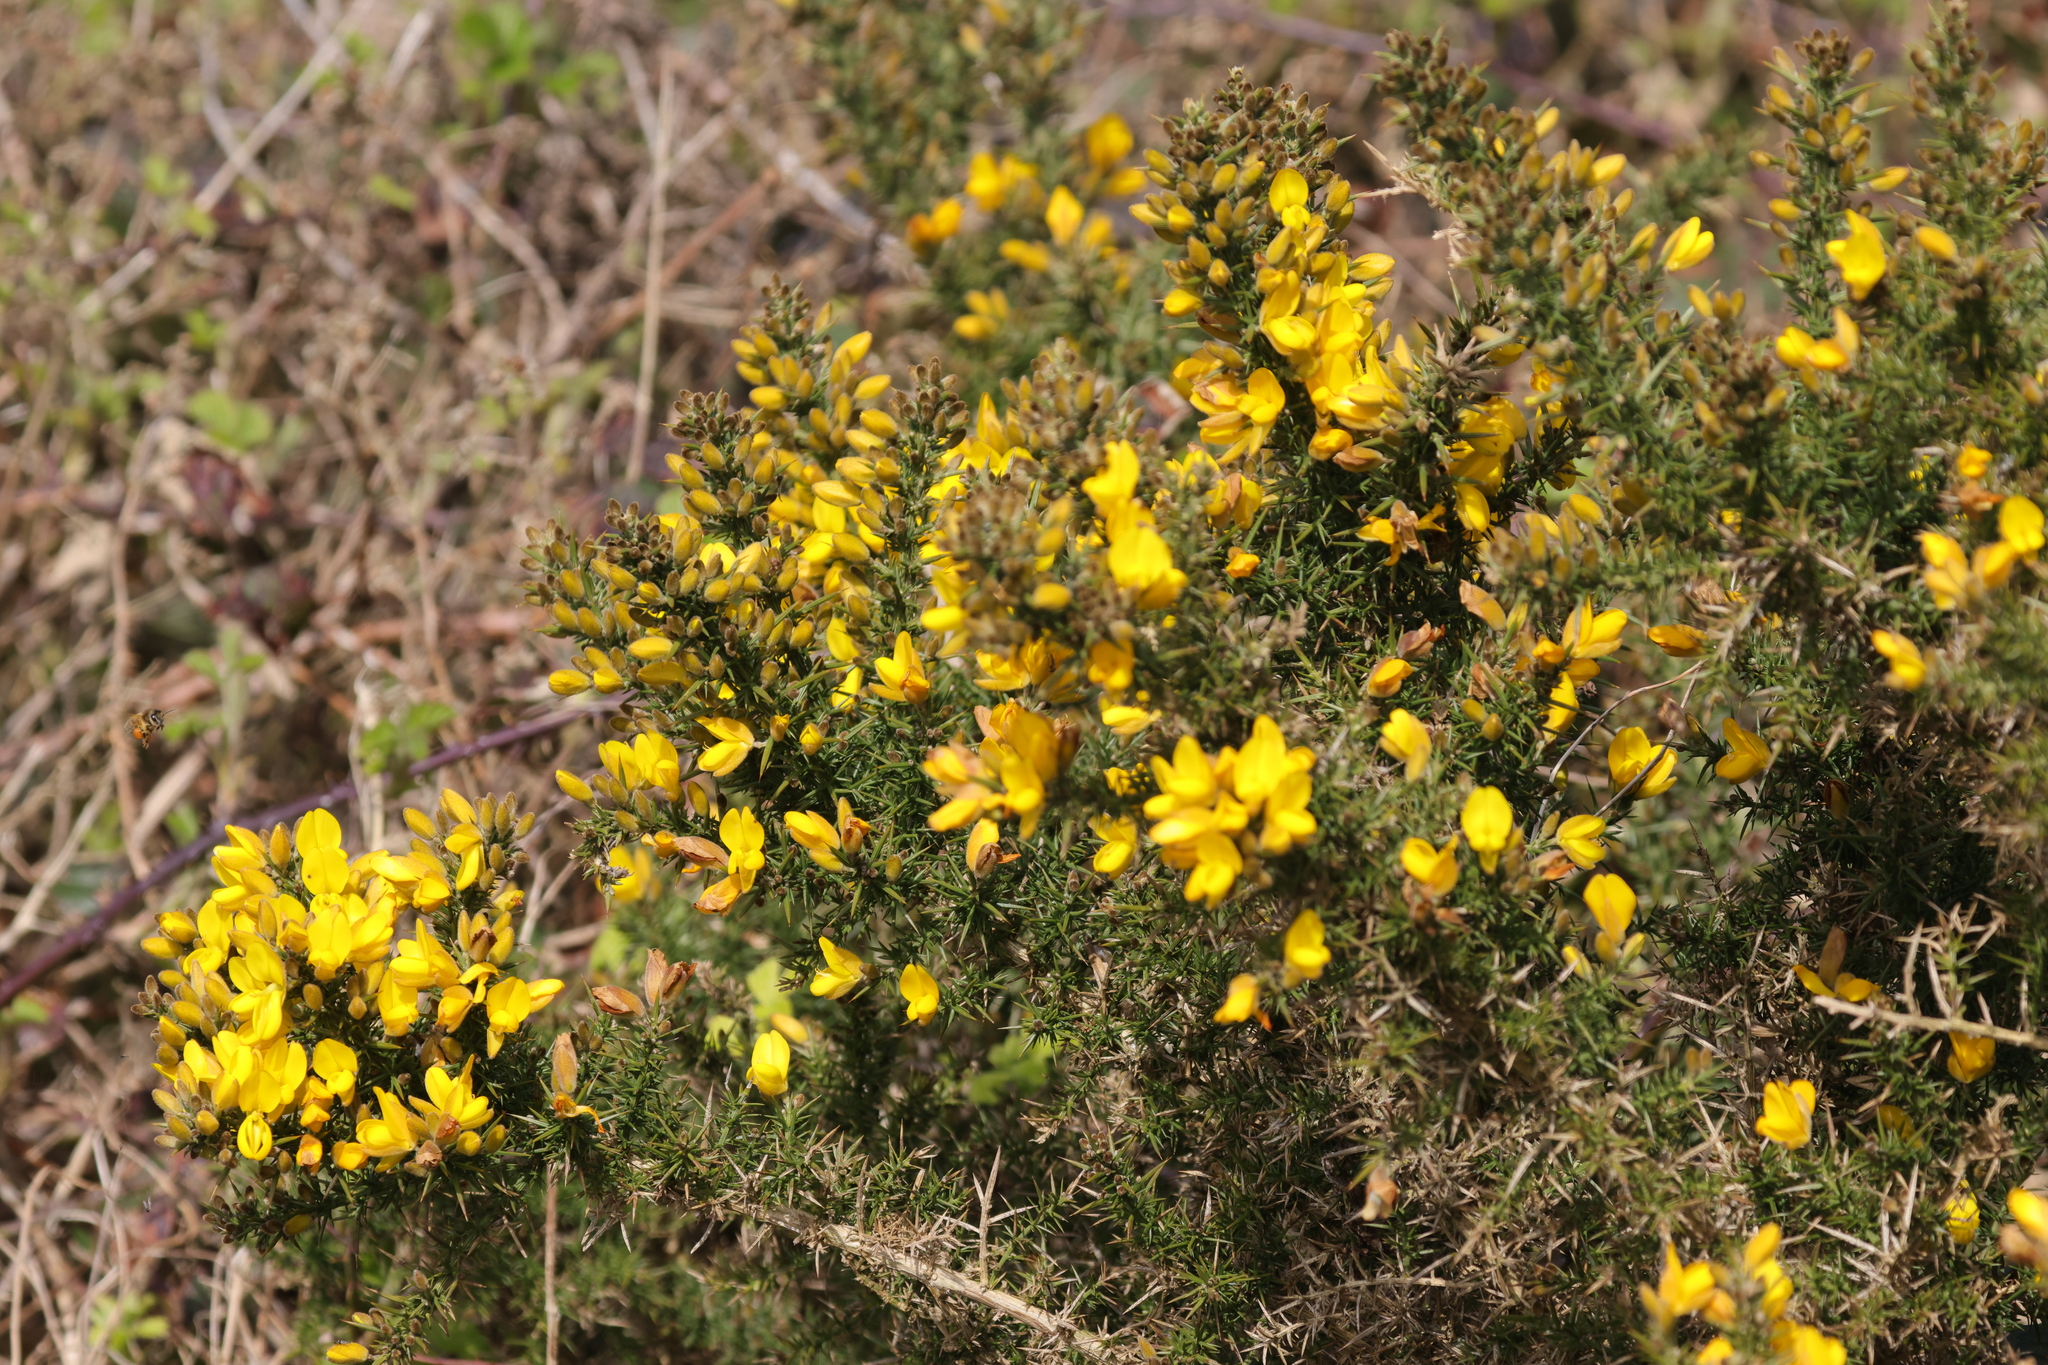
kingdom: Plantae
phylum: Tracheophyta
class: Magnoliopsida
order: Fabales
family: Fabaceae
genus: Ulex
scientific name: Ulex europaeus
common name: Common gorse
